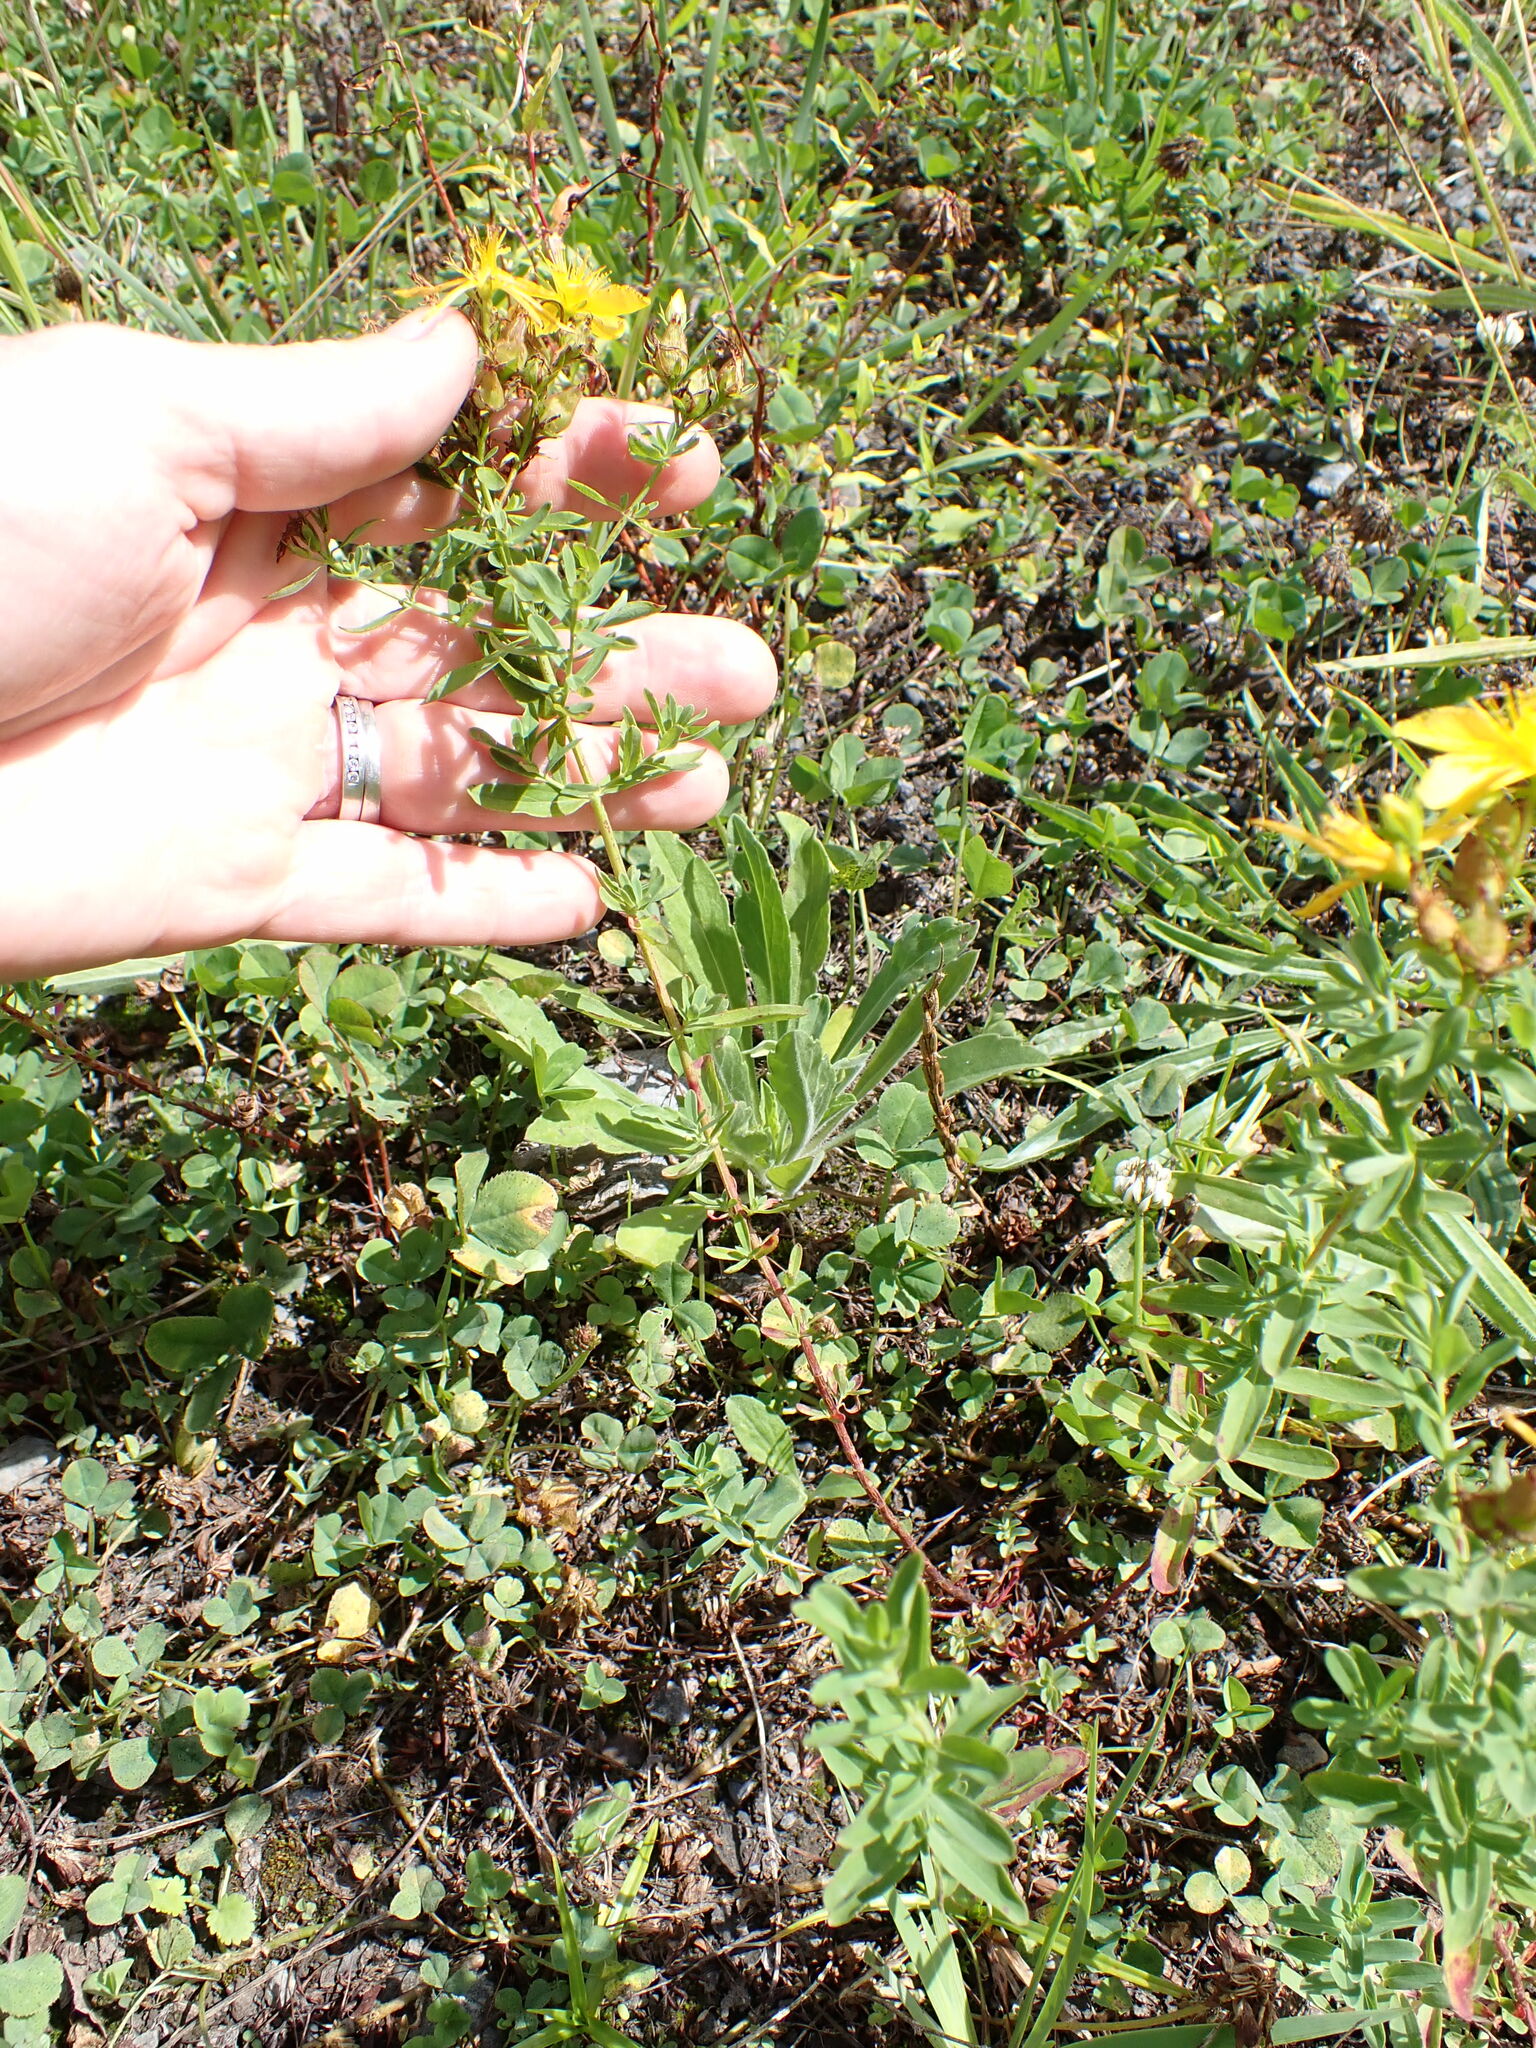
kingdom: Plantae
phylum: Tracheophyta
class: Magnoliopsida
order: Malpighiales
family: Hypericaceae
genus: Hypericum
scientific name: Hypericum perforatum
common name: Common st. johnswort
